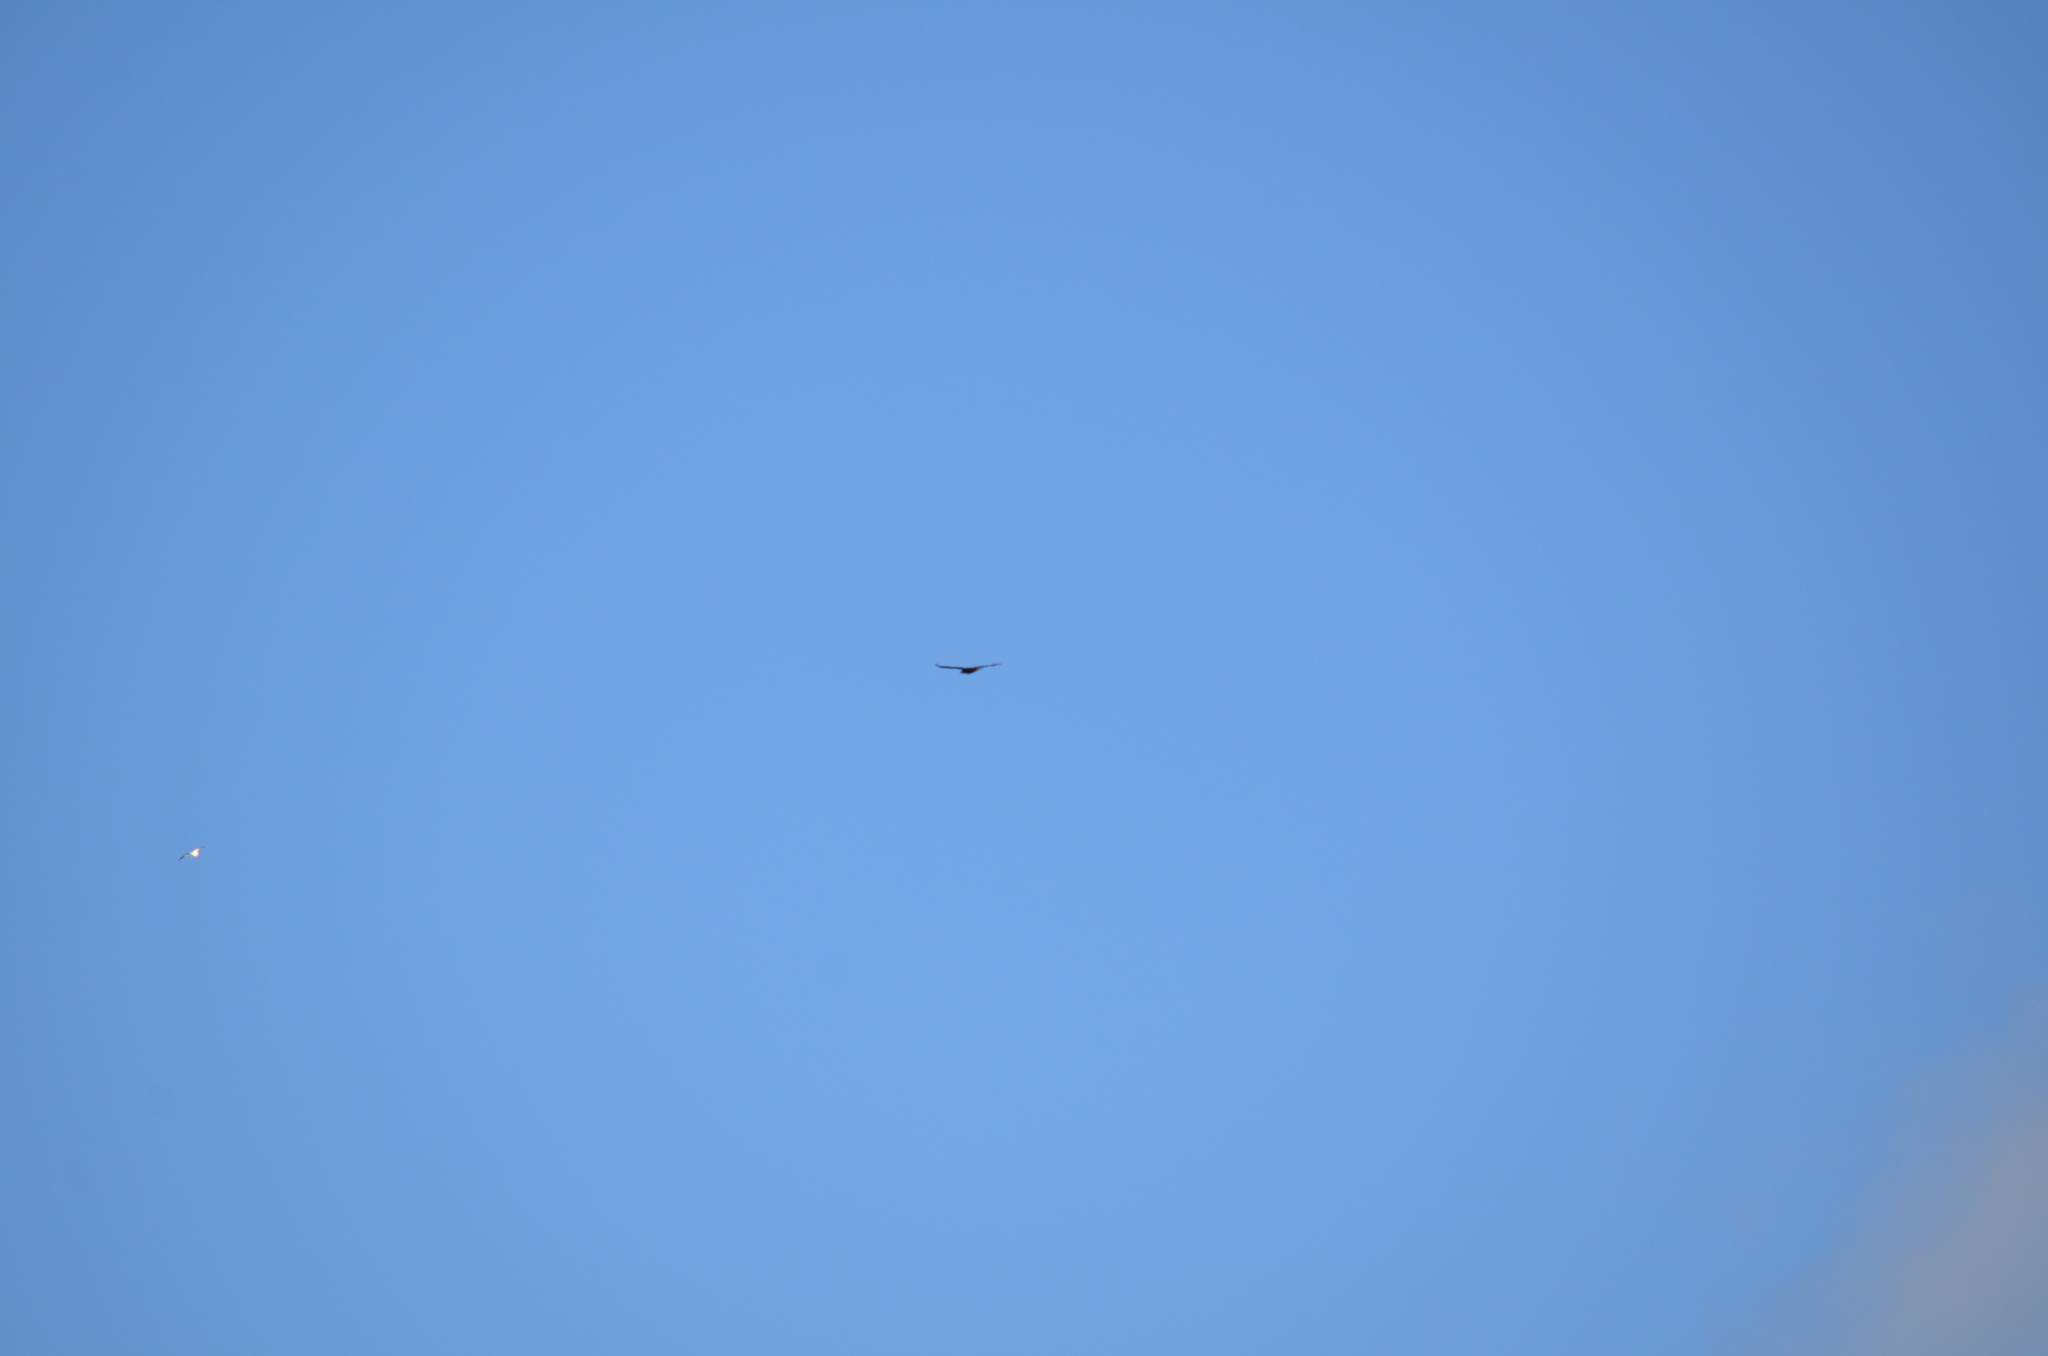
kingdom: Animalia
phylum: Chordata
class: Aves
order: Accipitriformes
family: Accipitridae
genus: Haliaeetus
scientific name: Haliaeetus leucocephalus
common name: Bald eagle
